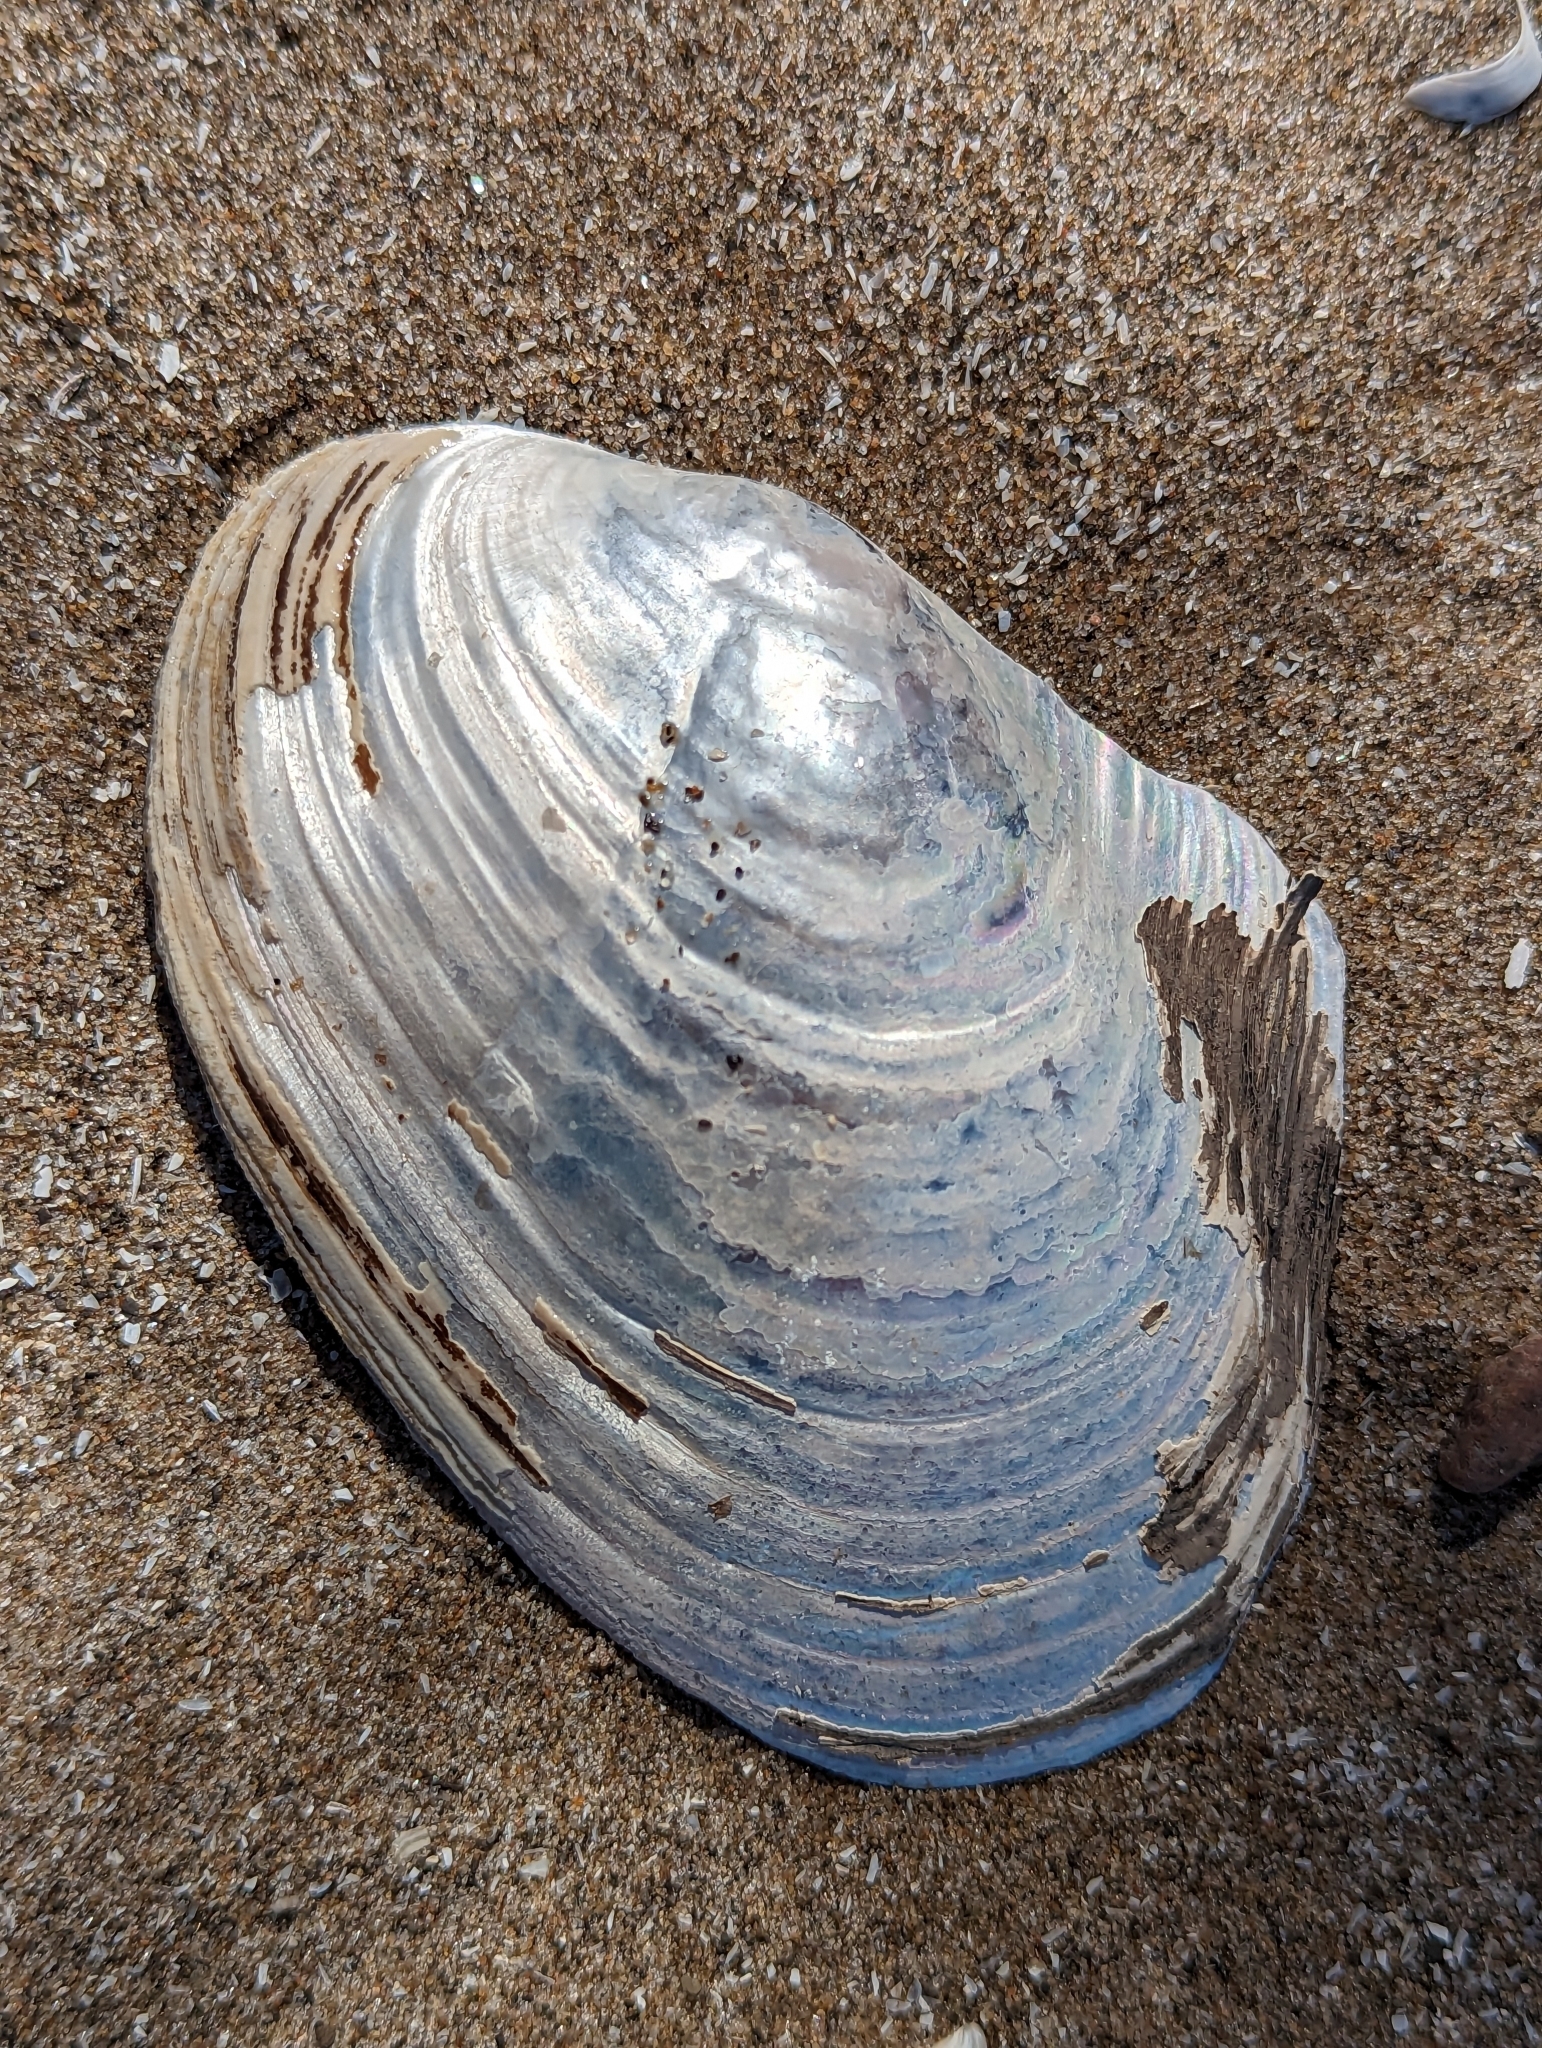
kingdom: Animalia
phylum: Mollusca
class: Bivalvia
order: Unionida
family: Unionidae
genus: Potamilus
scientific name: Potamilus alatus
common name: Pink heelsplitter
